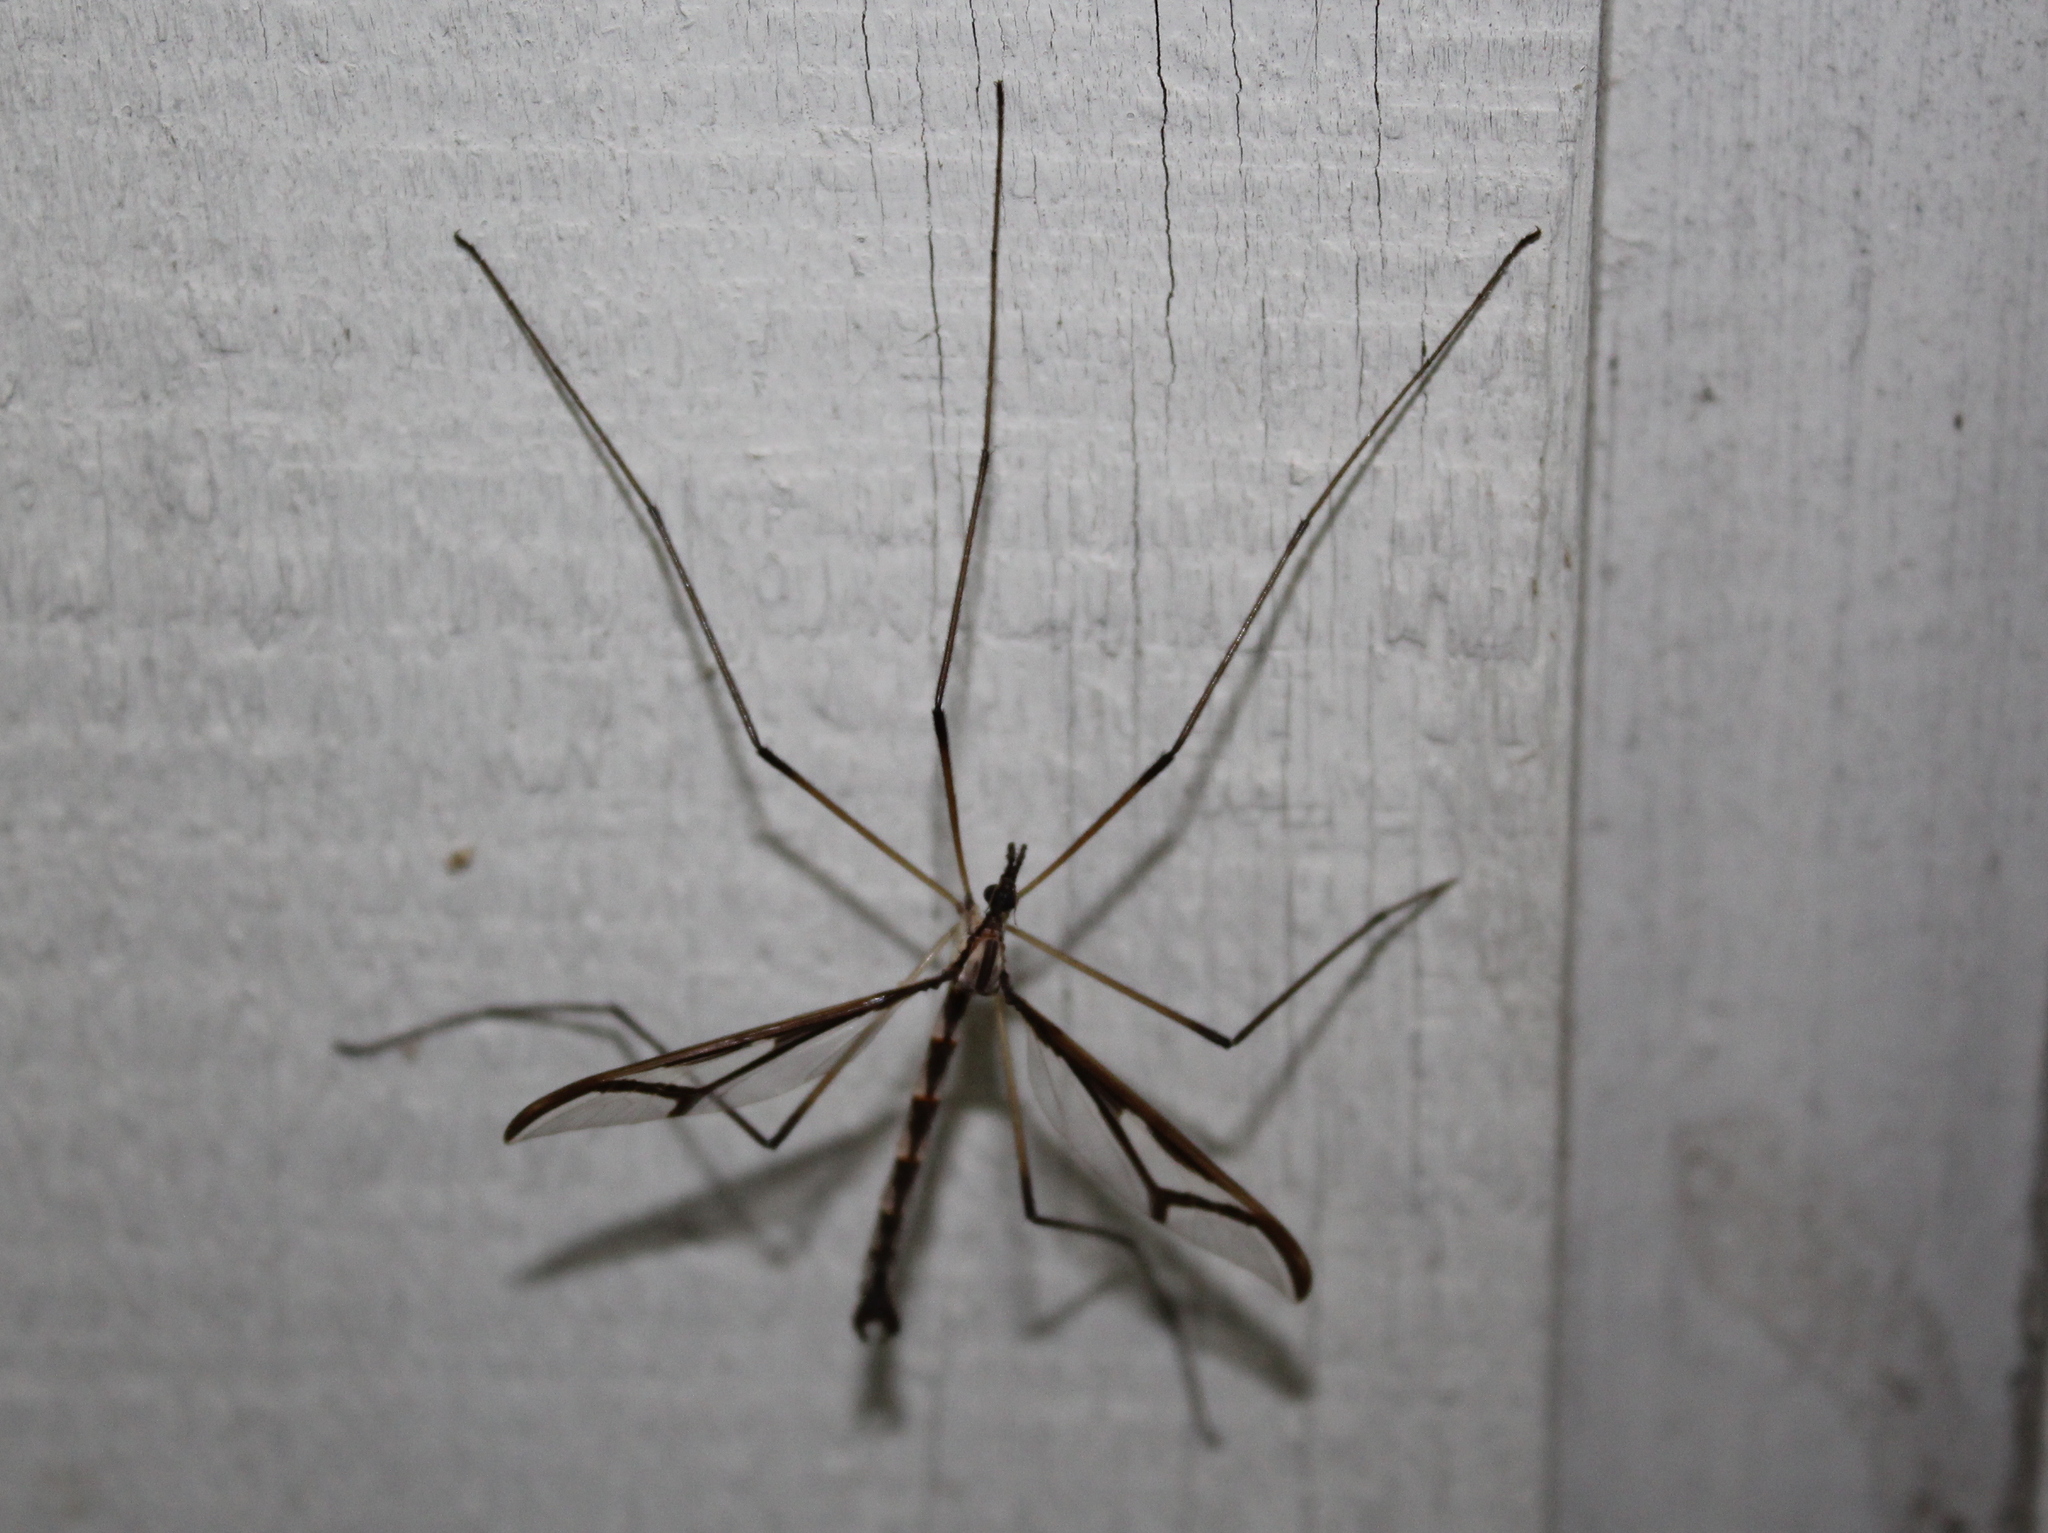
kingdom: Animalia
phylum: Arthropoda
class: Insecta
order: Diptera
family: Pediciidae
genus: Pedicia
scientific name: Pedicia albivitta
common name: Giant eastern crane fly
